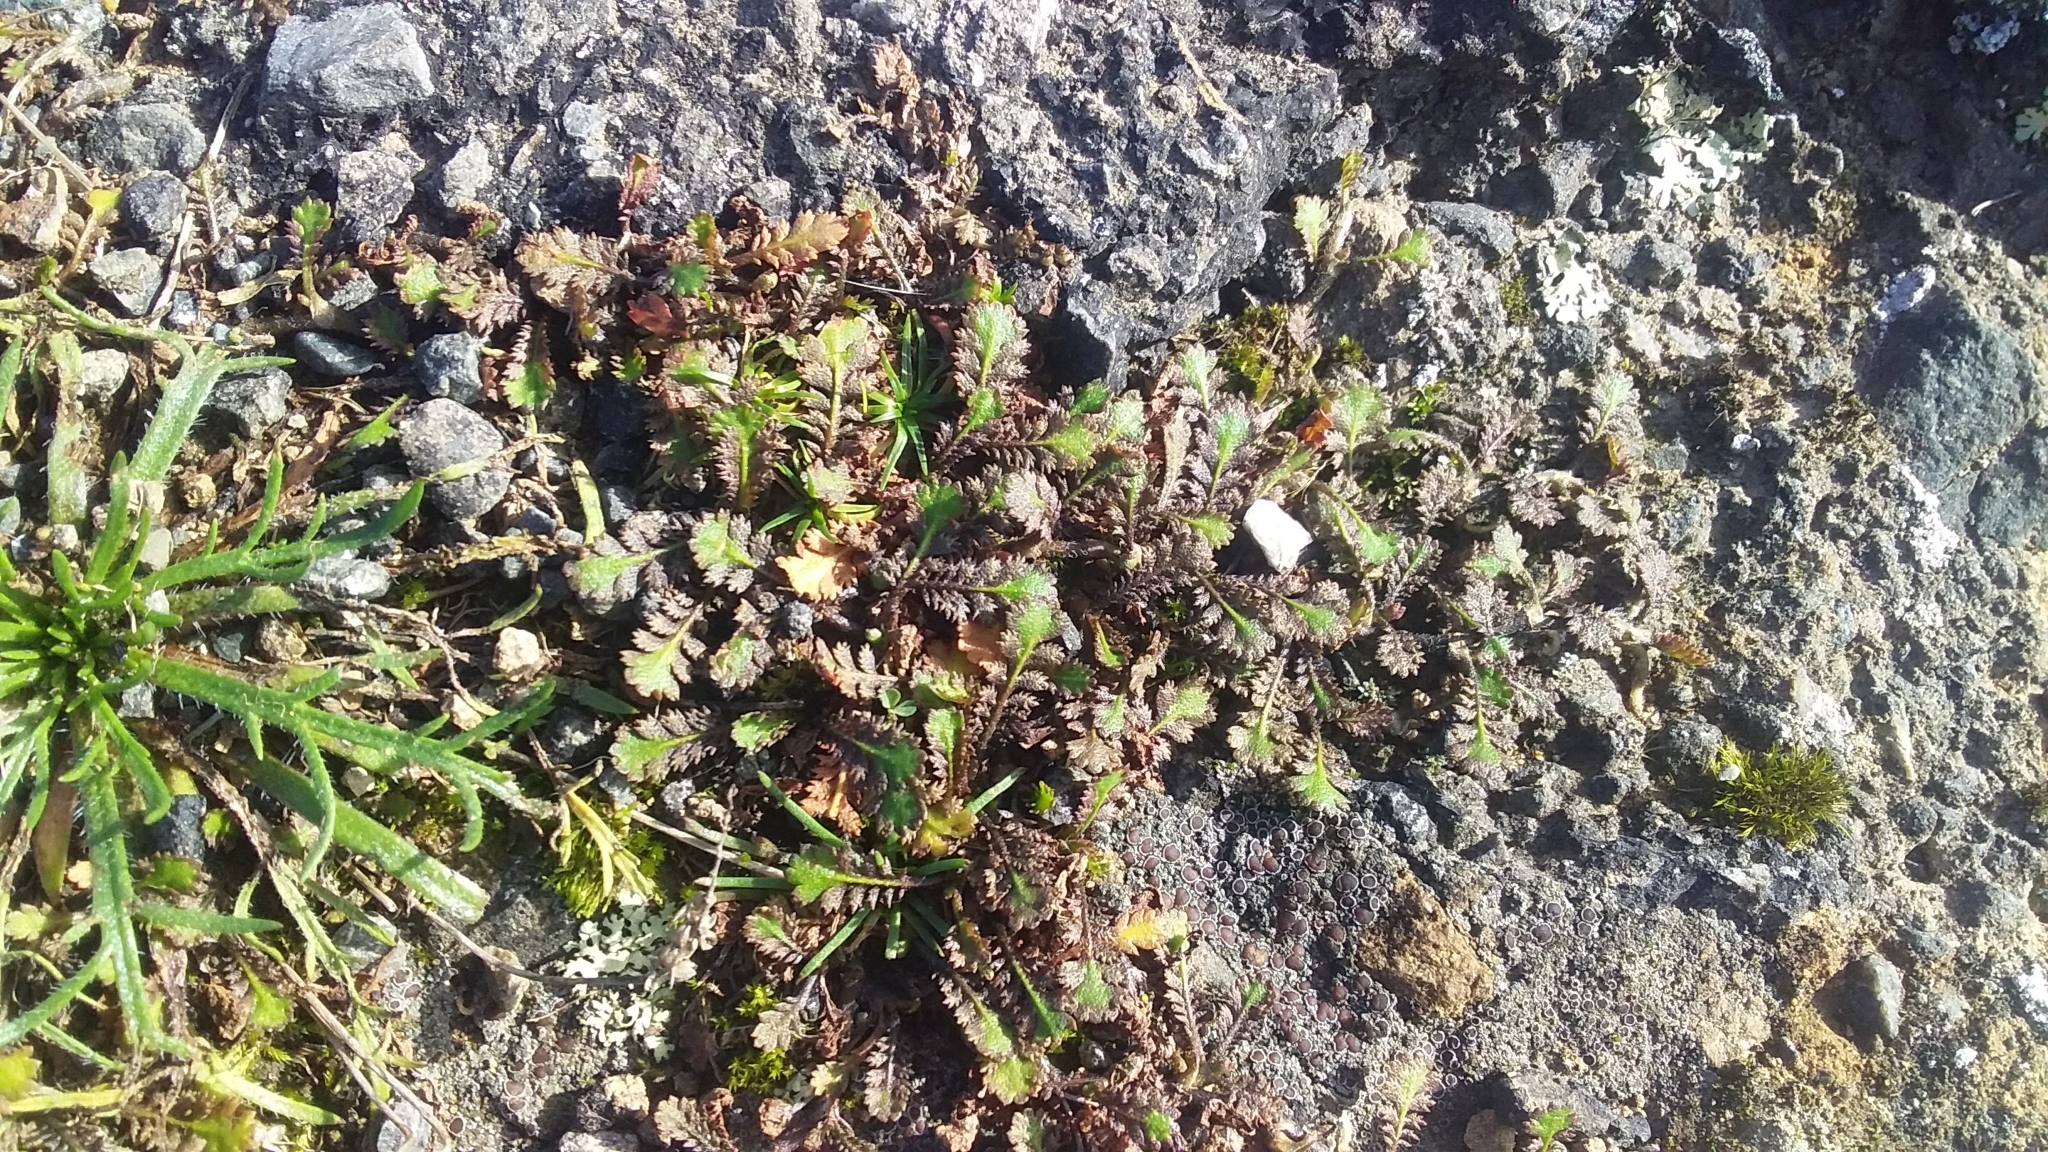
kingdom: Plantae
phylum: Tracheophyta
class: Magnoliopsida
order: Asterales
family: Asteraceae
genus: Leptinella
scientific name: Leptinella squalida
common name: New zealand brass-buttons
